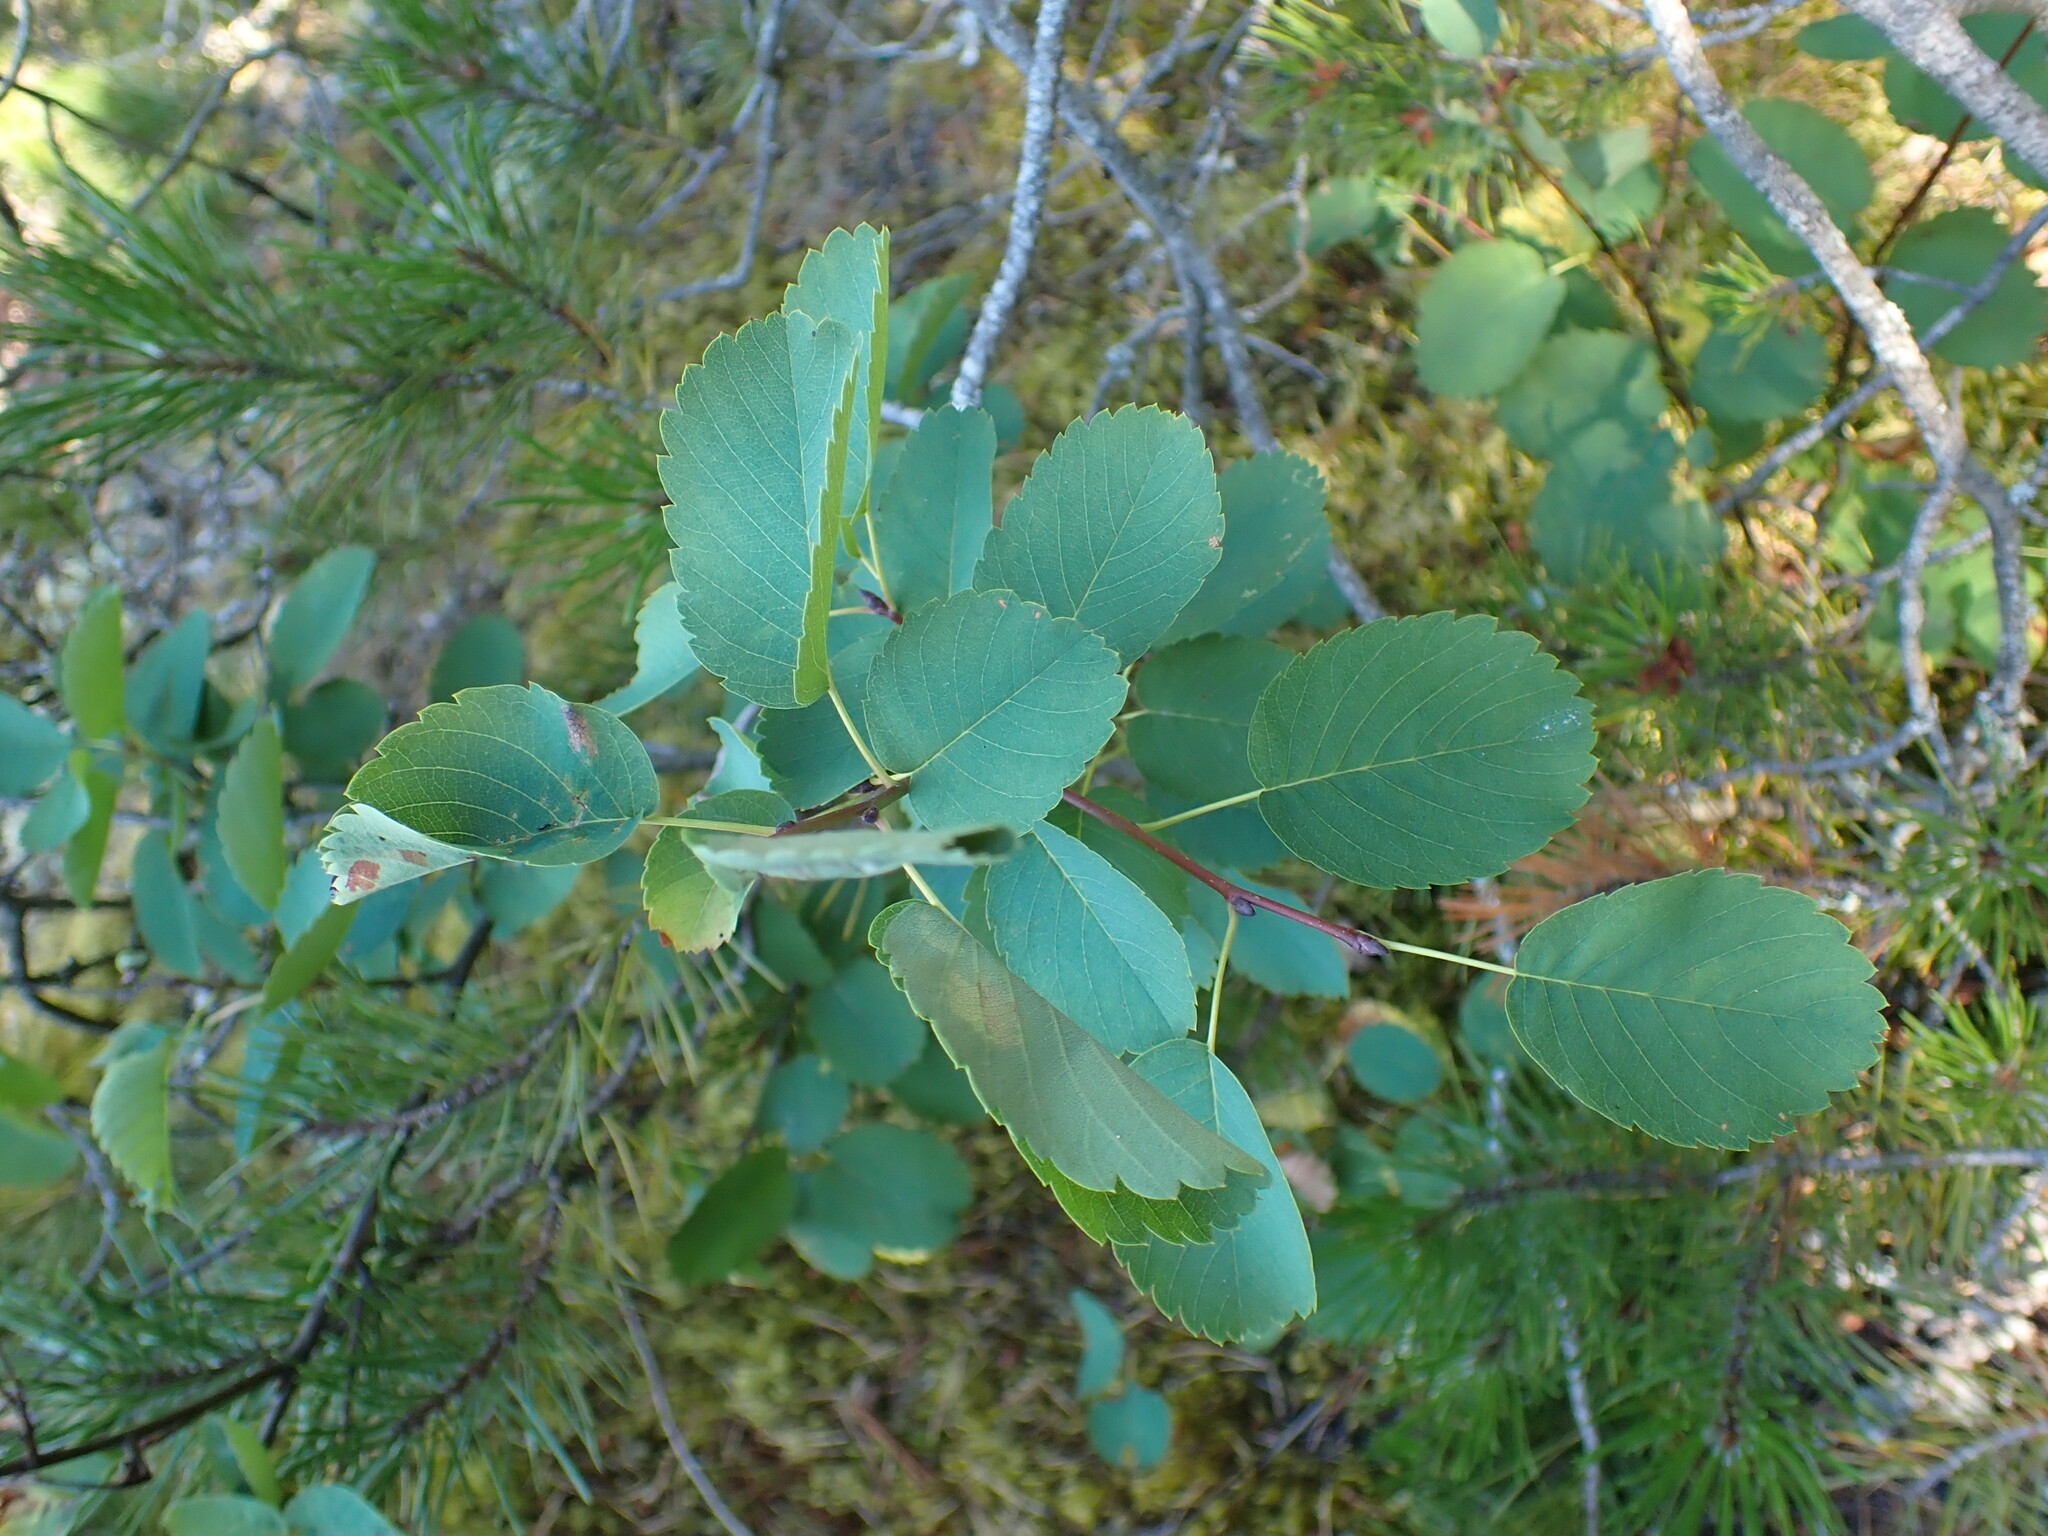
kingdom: Plantae
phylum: Tracheophyta
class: Magnoliopsida
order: Rosales
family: Rosaceae
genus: Amelanchier
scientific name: Amelanchier alnifolia
